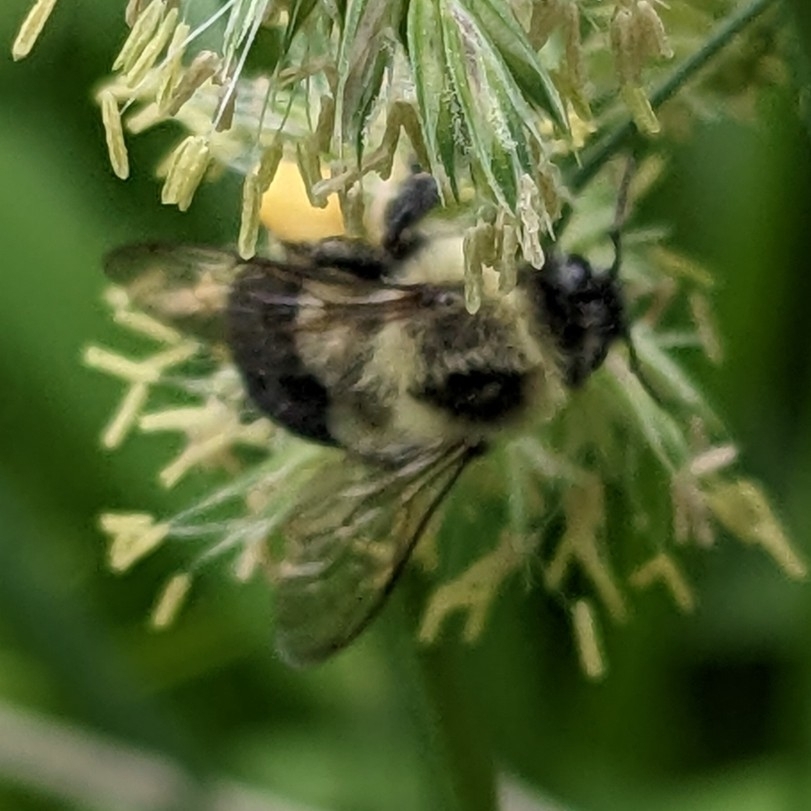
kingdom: Animalia
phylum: Arthropoda
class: Insecta
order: Hymenoptera
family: Apidae
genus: Bombus
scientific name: Bombus impatiens
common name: Common eastern bumble bee
